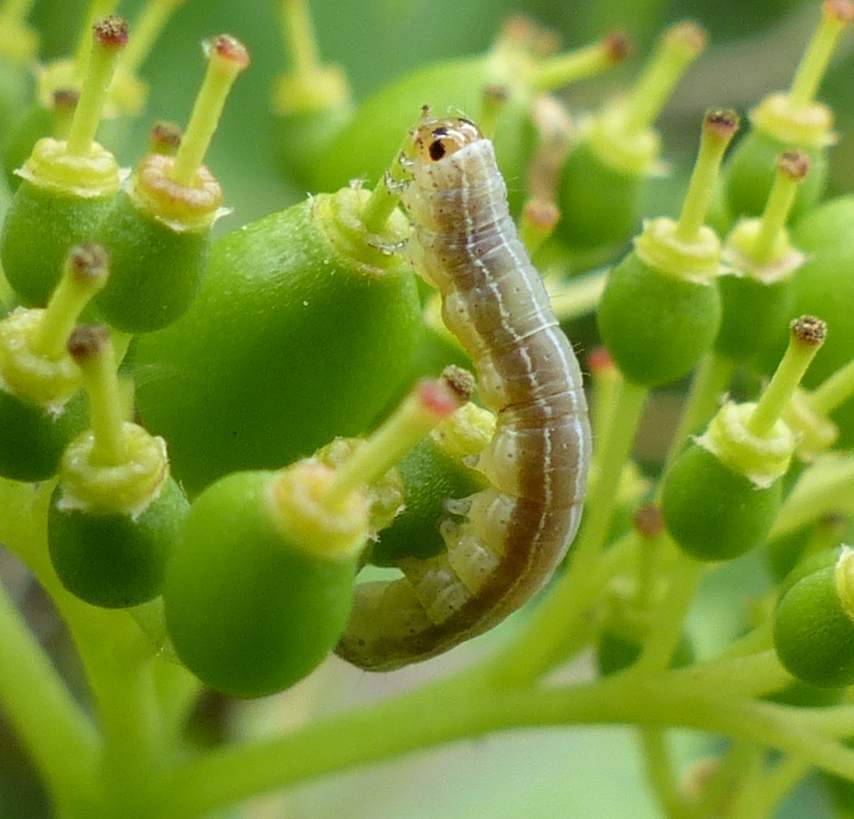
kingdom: Animalia
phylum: Arthropoda
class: Insecta
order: Lepidoptera
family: Noctuidae
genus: Crocigrapha
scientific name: Crocigrapha normani
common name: Norman's quaker
